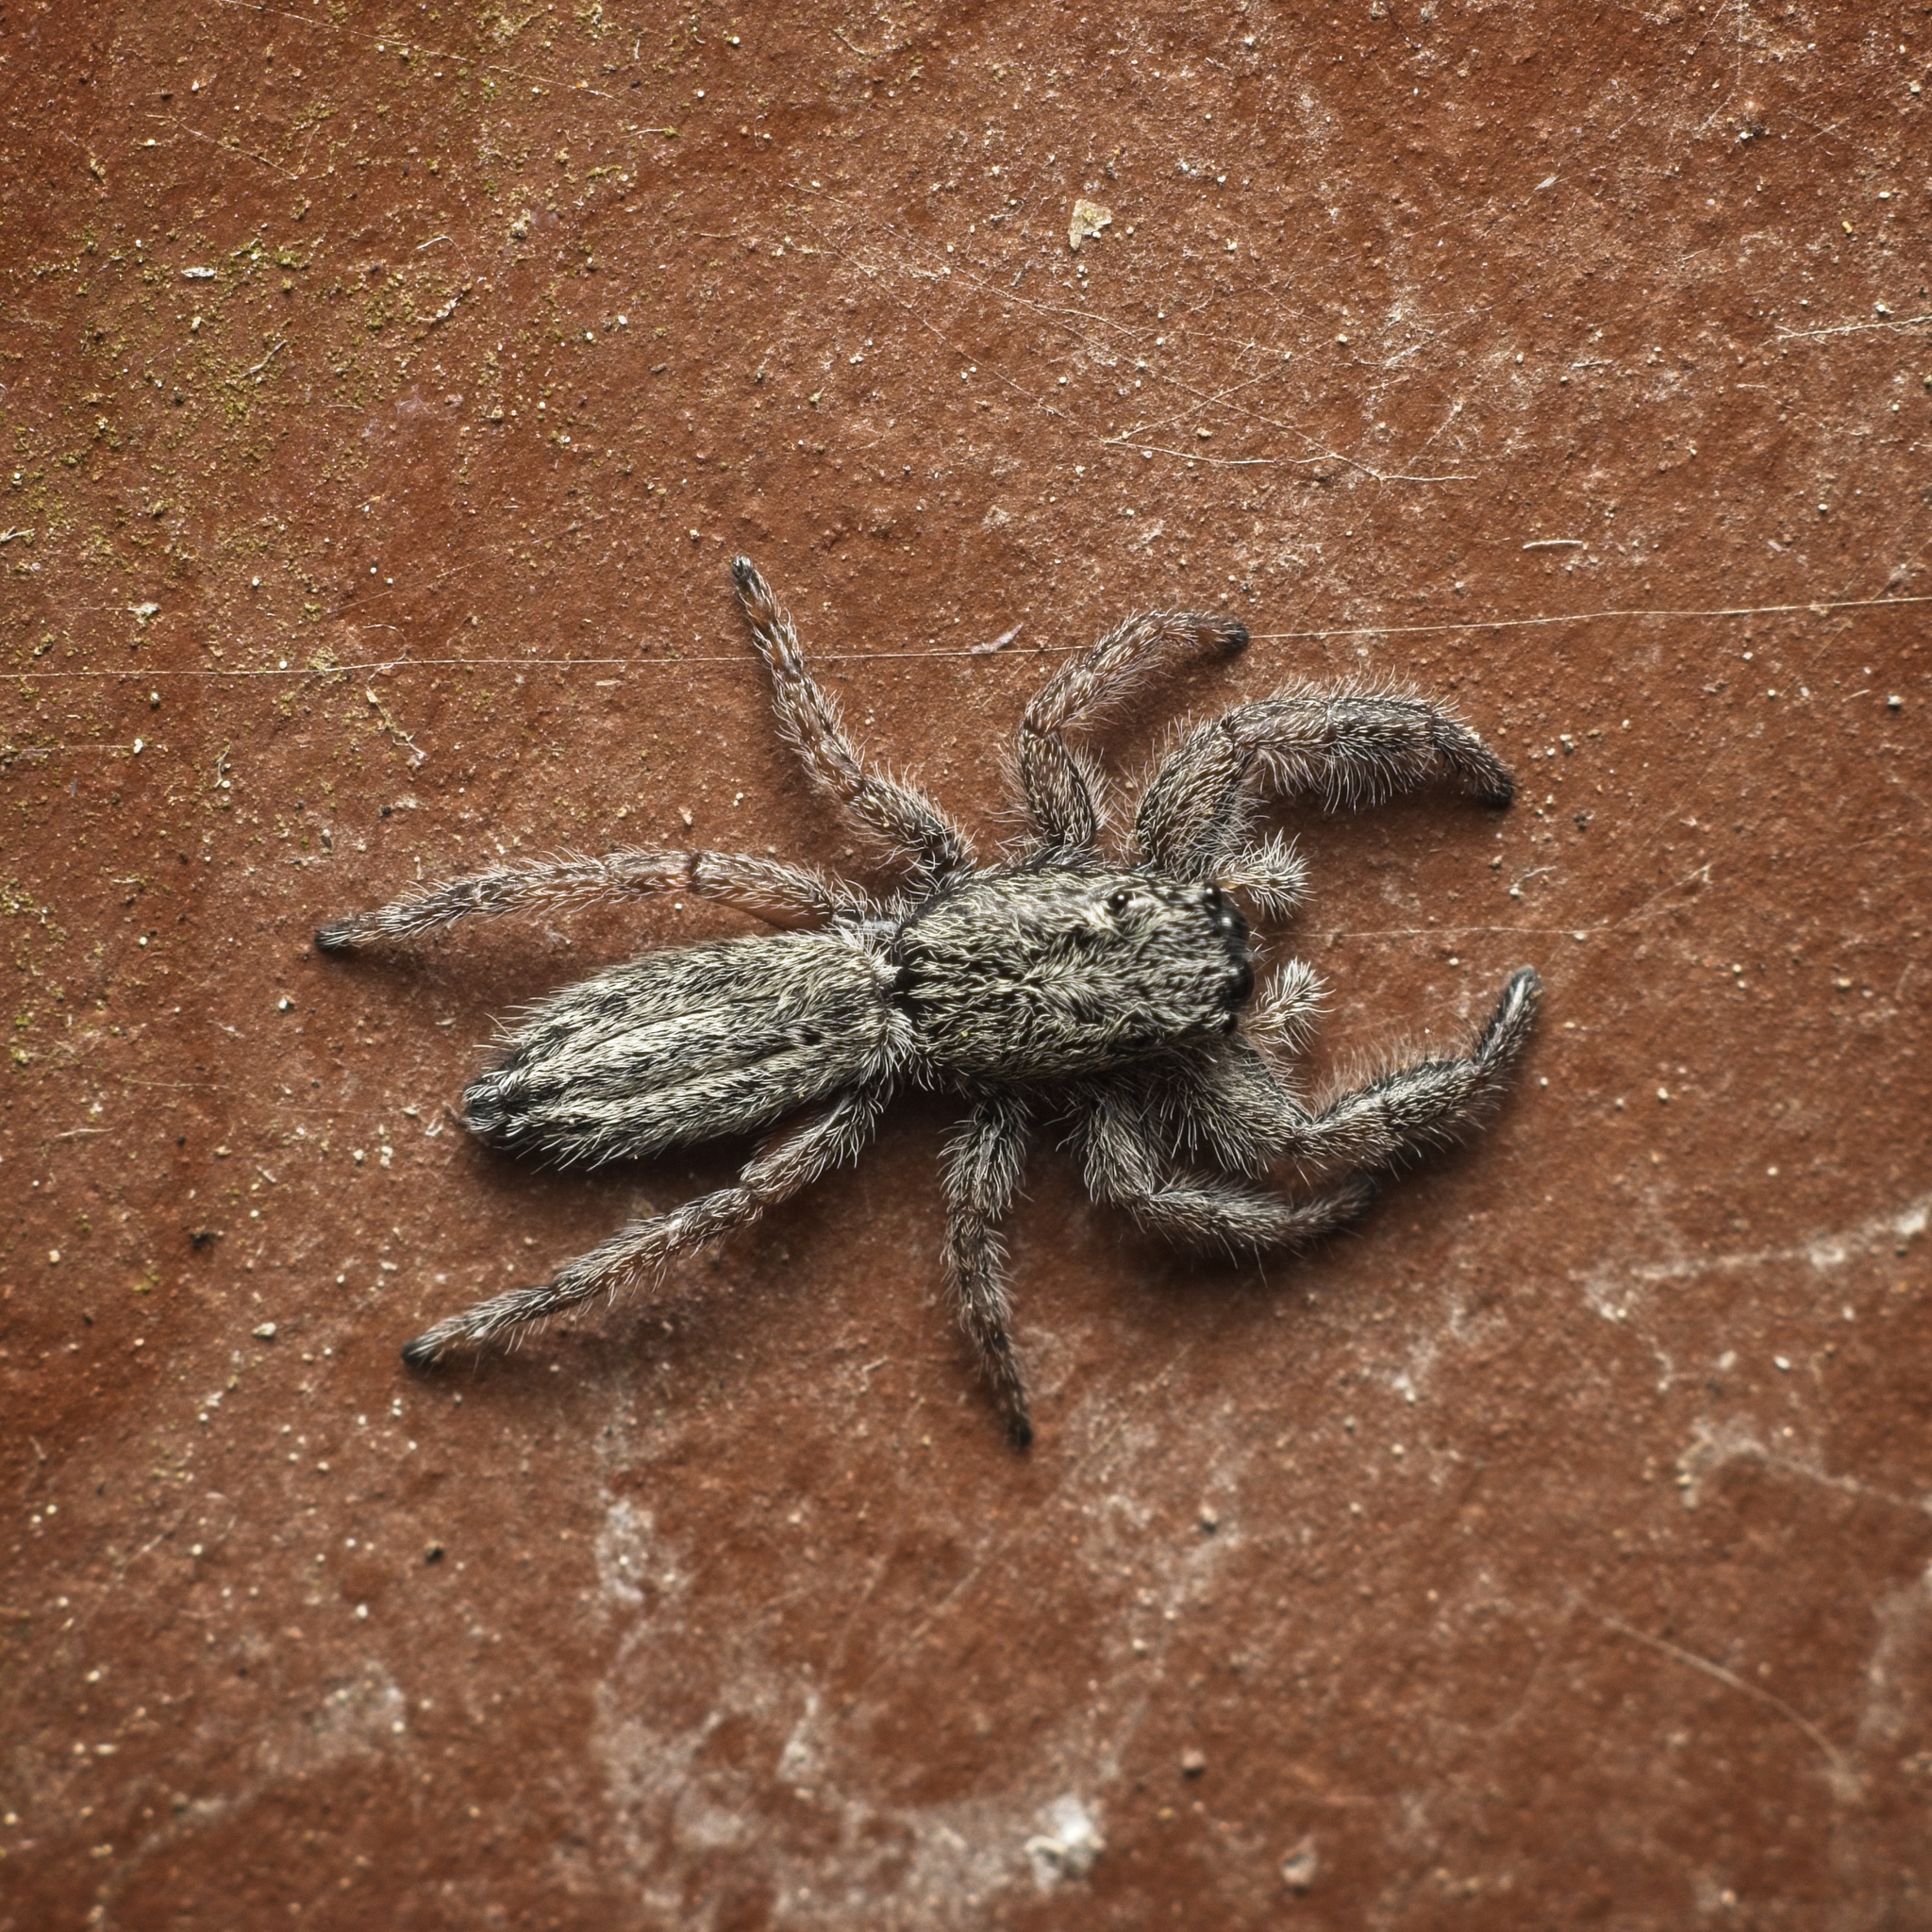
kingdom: Animalia
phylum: Arthropoda
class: Arachnida
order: Araneae
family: Salticidae
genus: Holoplatys
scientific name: Holoplatys apressus
